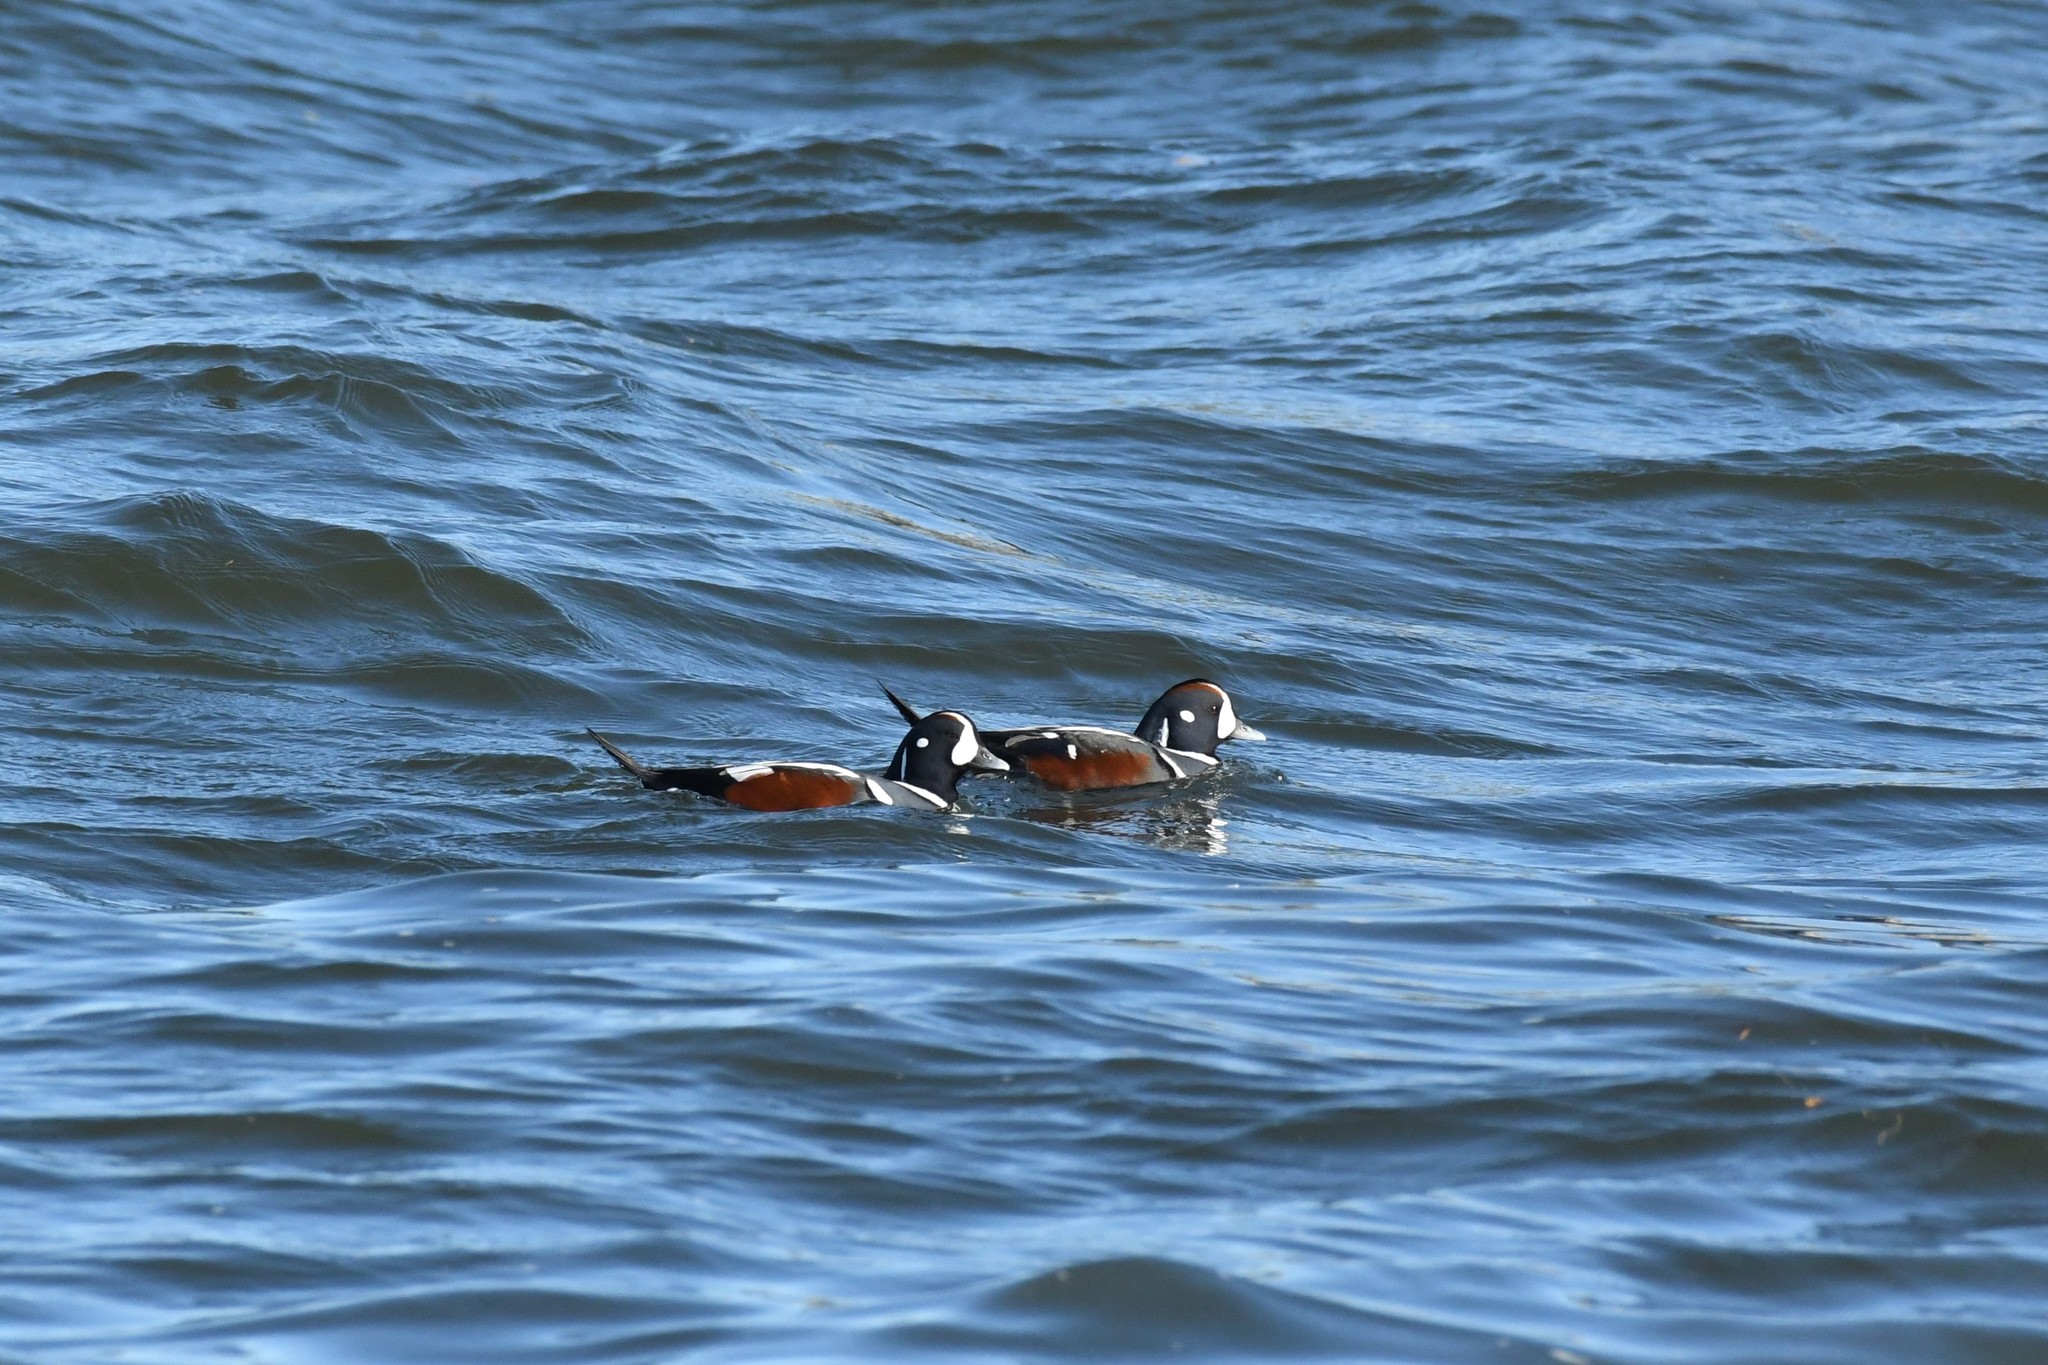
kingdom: Animalia
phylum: Chordata
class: Aves
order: Anseriformes
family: Anatidae
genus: Histrionicus
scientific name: Histrionicus histrionicus
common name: Harlequin duck
